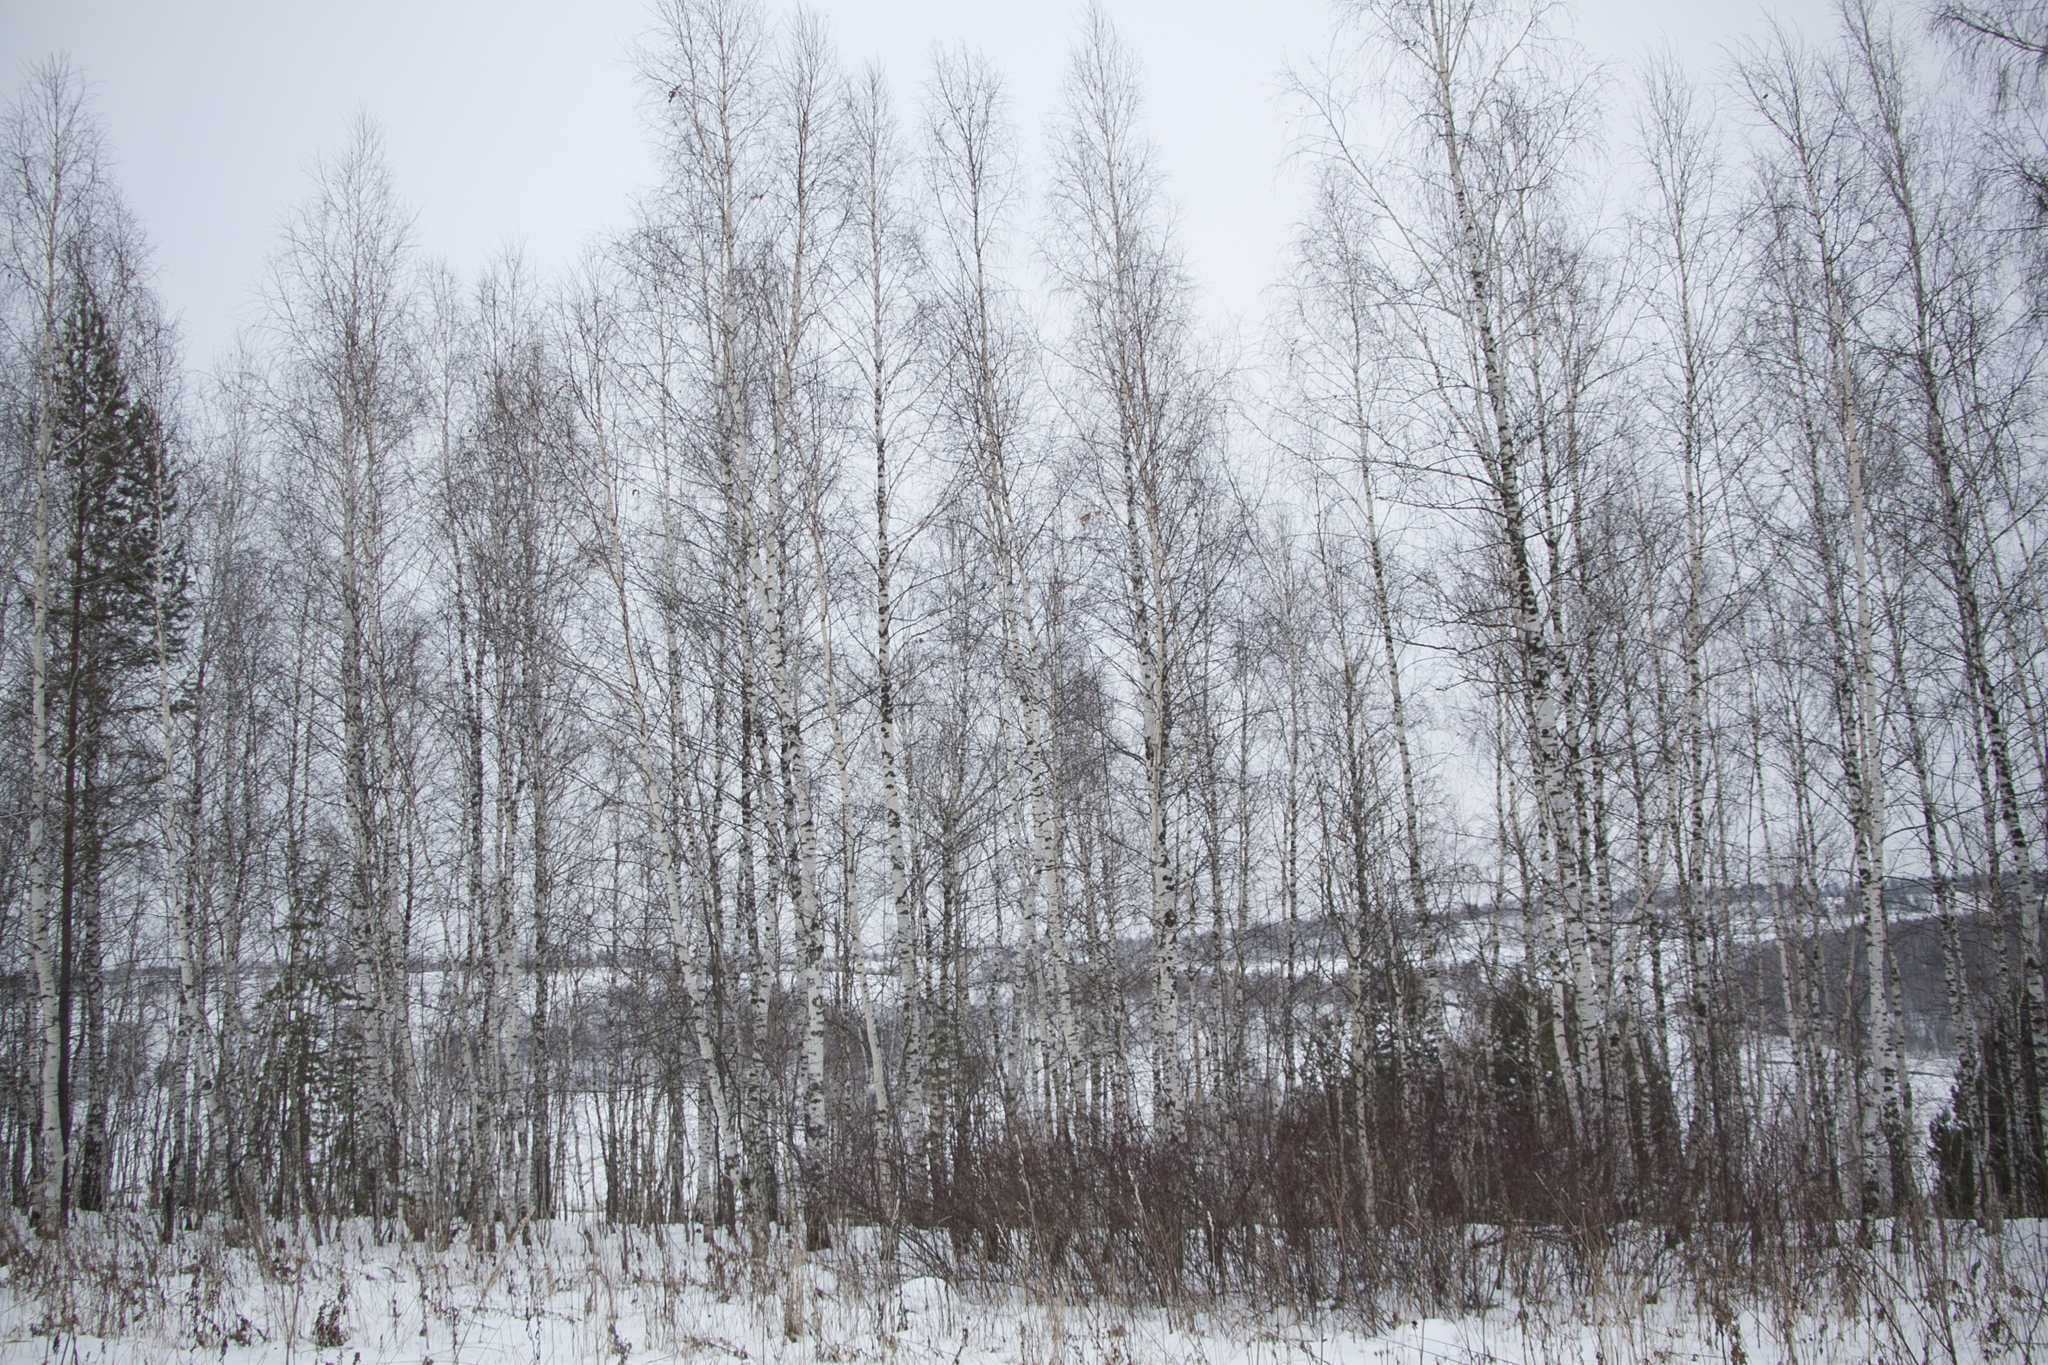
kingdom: Plantae
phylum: Tracheophyta
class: Magnoliopsida
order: Fagales
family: Betulaceae
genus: Betula
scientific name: Betula pendula
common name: Silver birch
